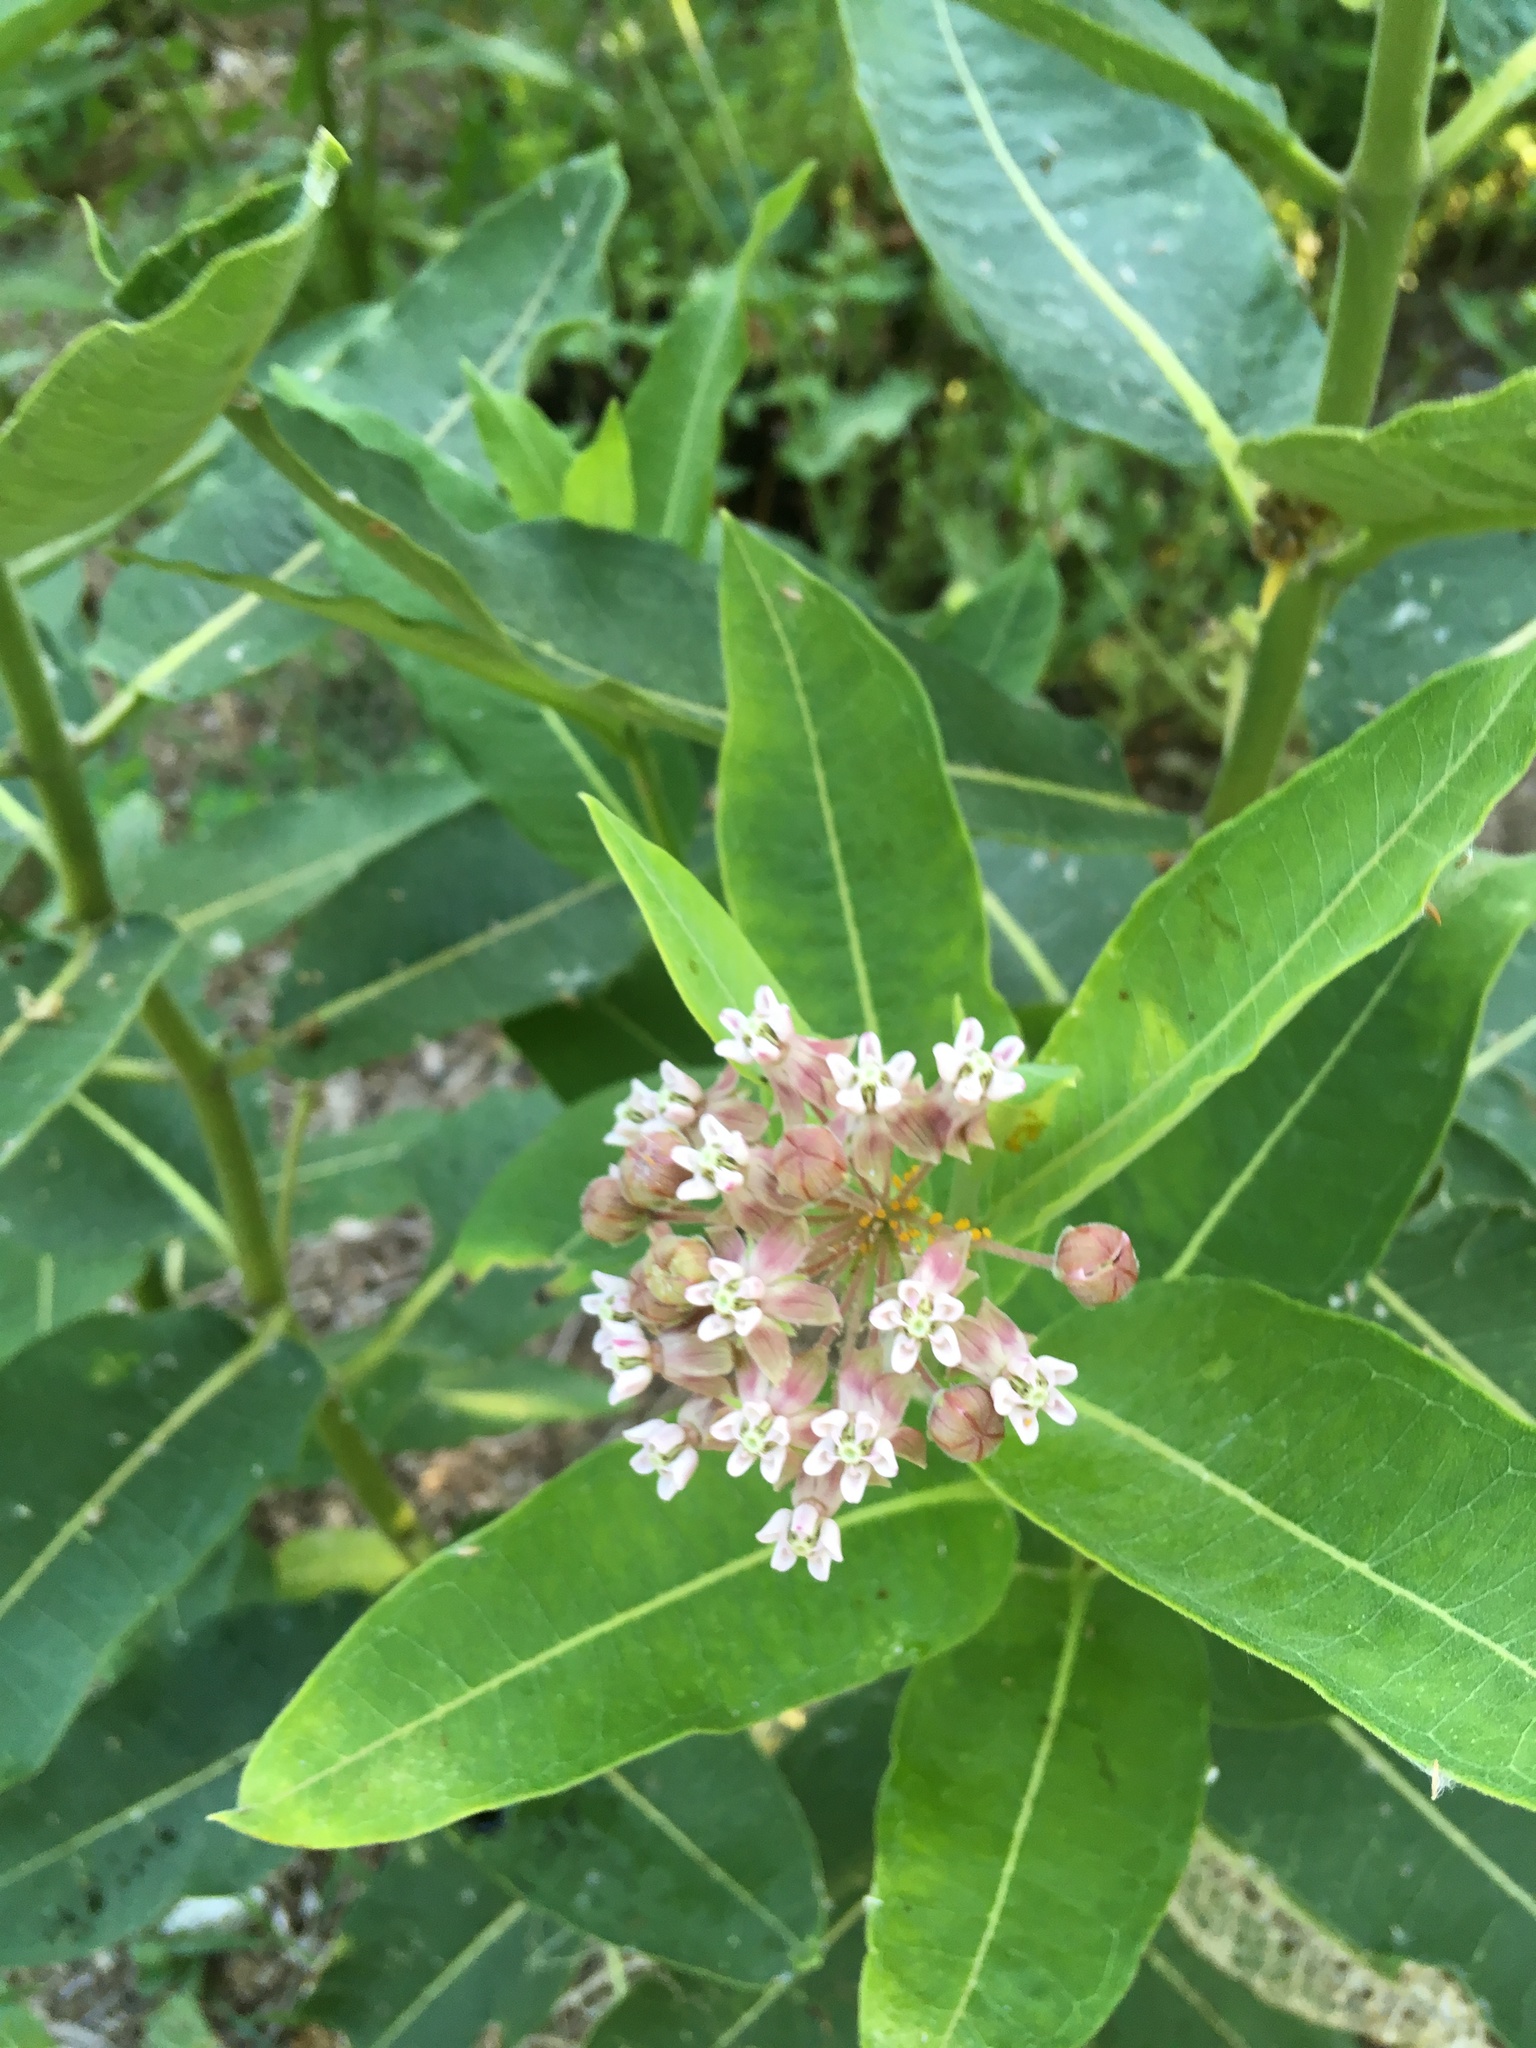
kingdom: Plantae
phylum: Tracheophyta
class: Magnoliopsida
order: Gentianales
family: Apocynaceae
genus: Asclepias
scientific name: Asclepias syriaca
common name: Common milkweed
